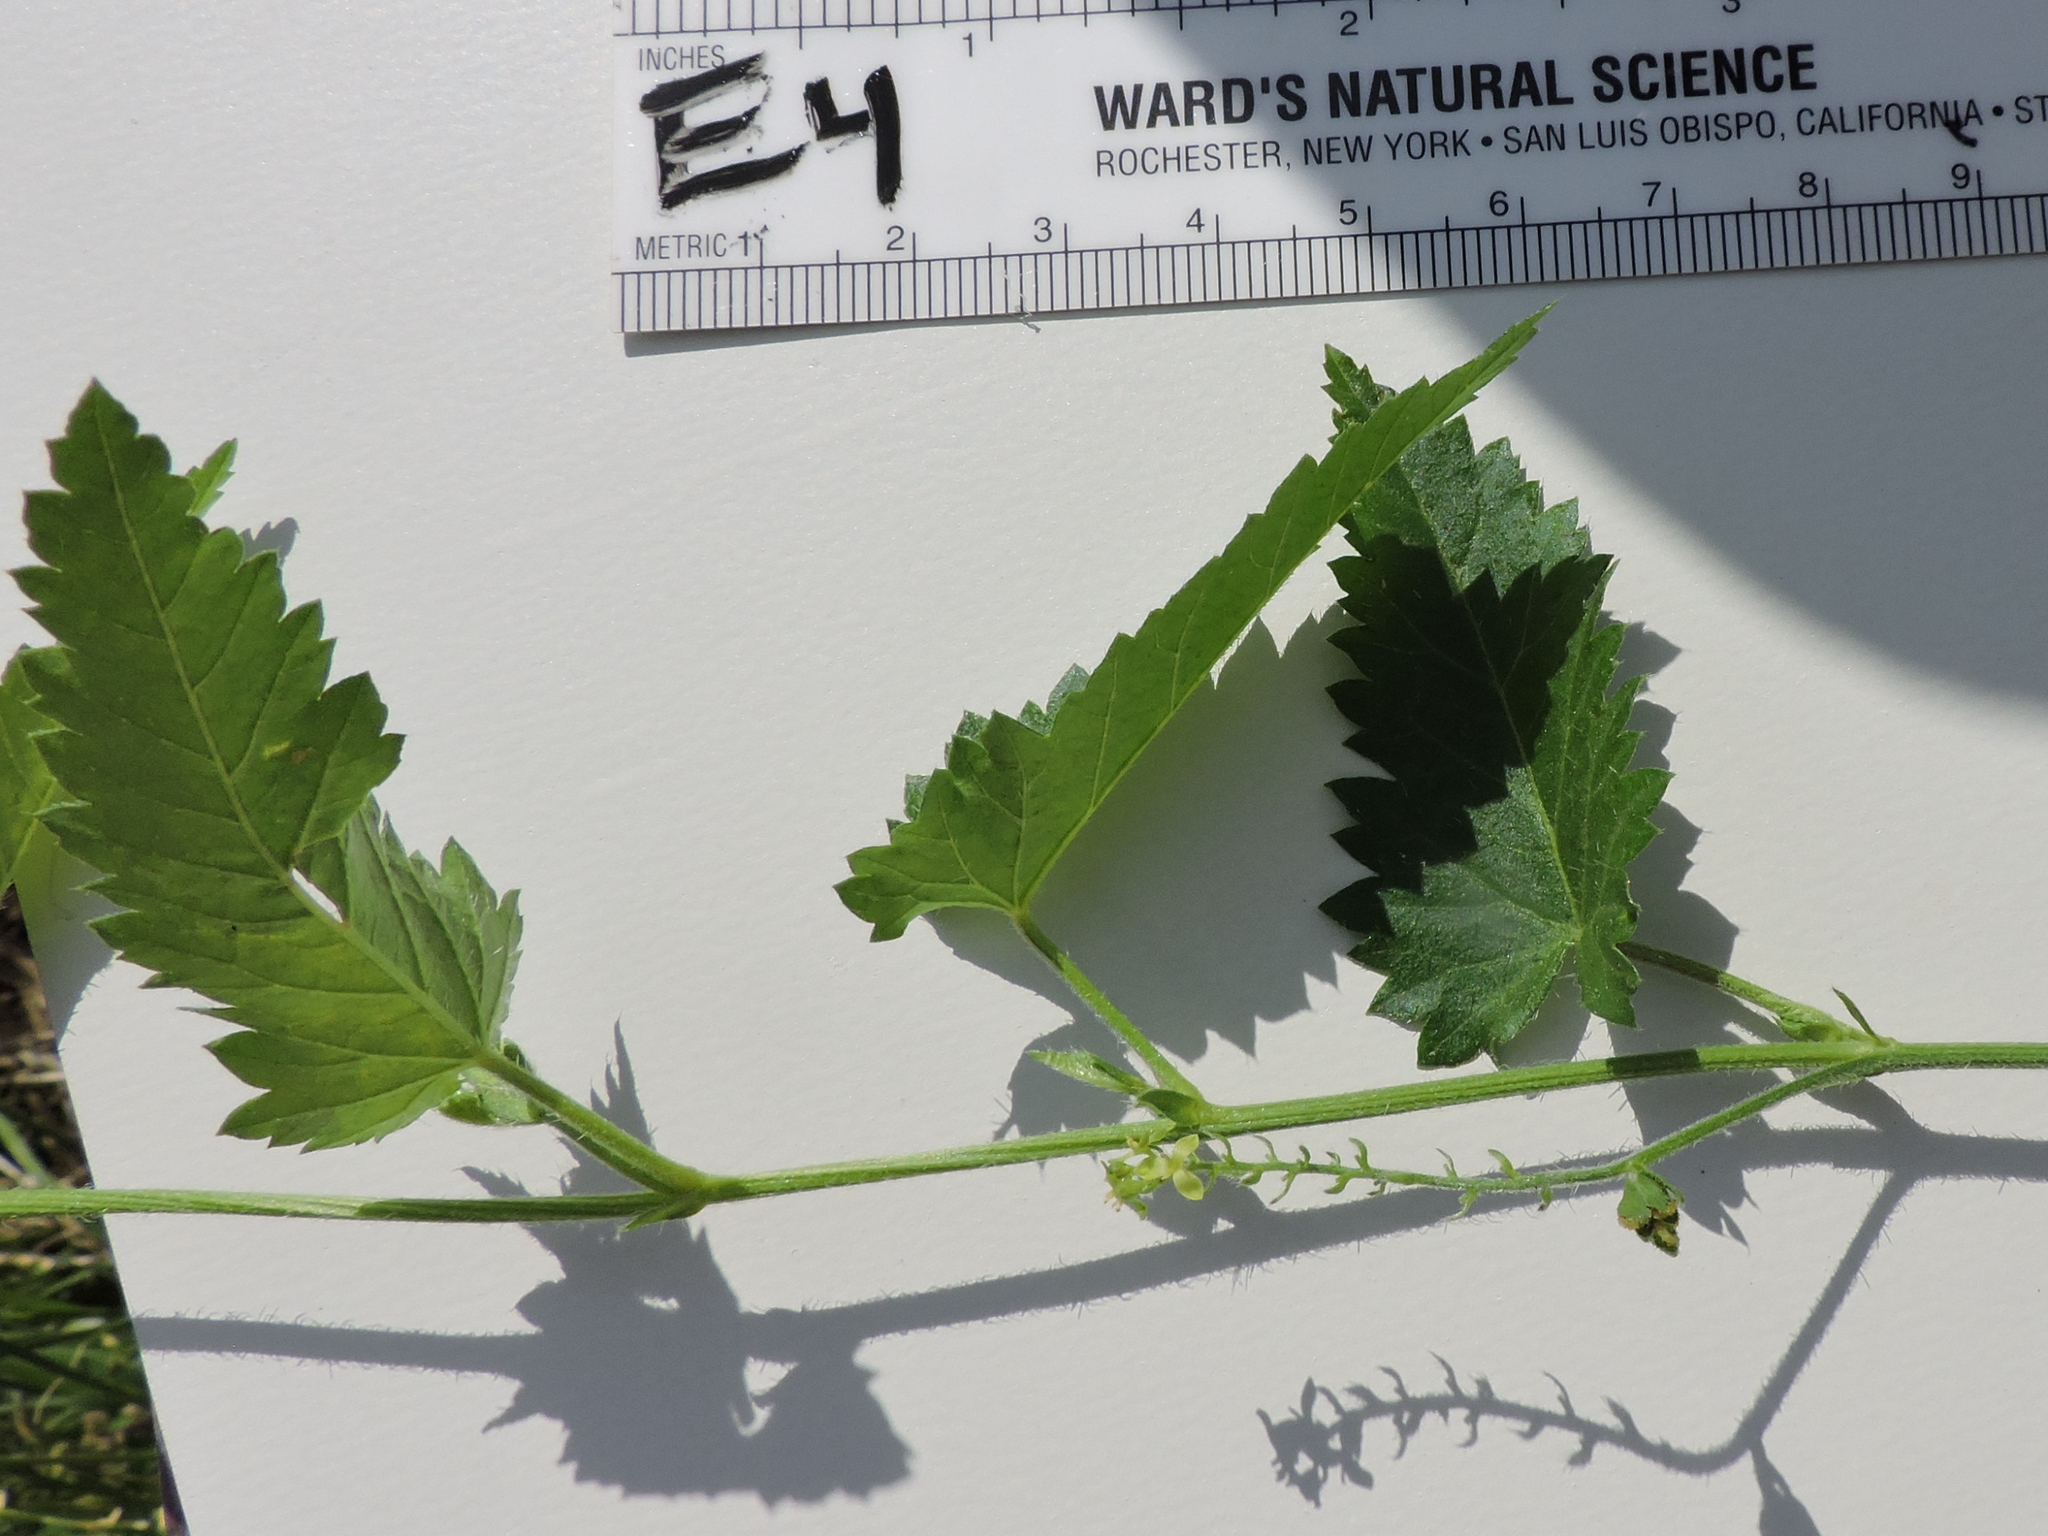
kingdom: Plantae
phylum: Tracheophyta
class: Magnoliopsida
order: Malpighiales
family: Euphorbiaceae
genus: Tragia
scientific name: Tragia ramosa
